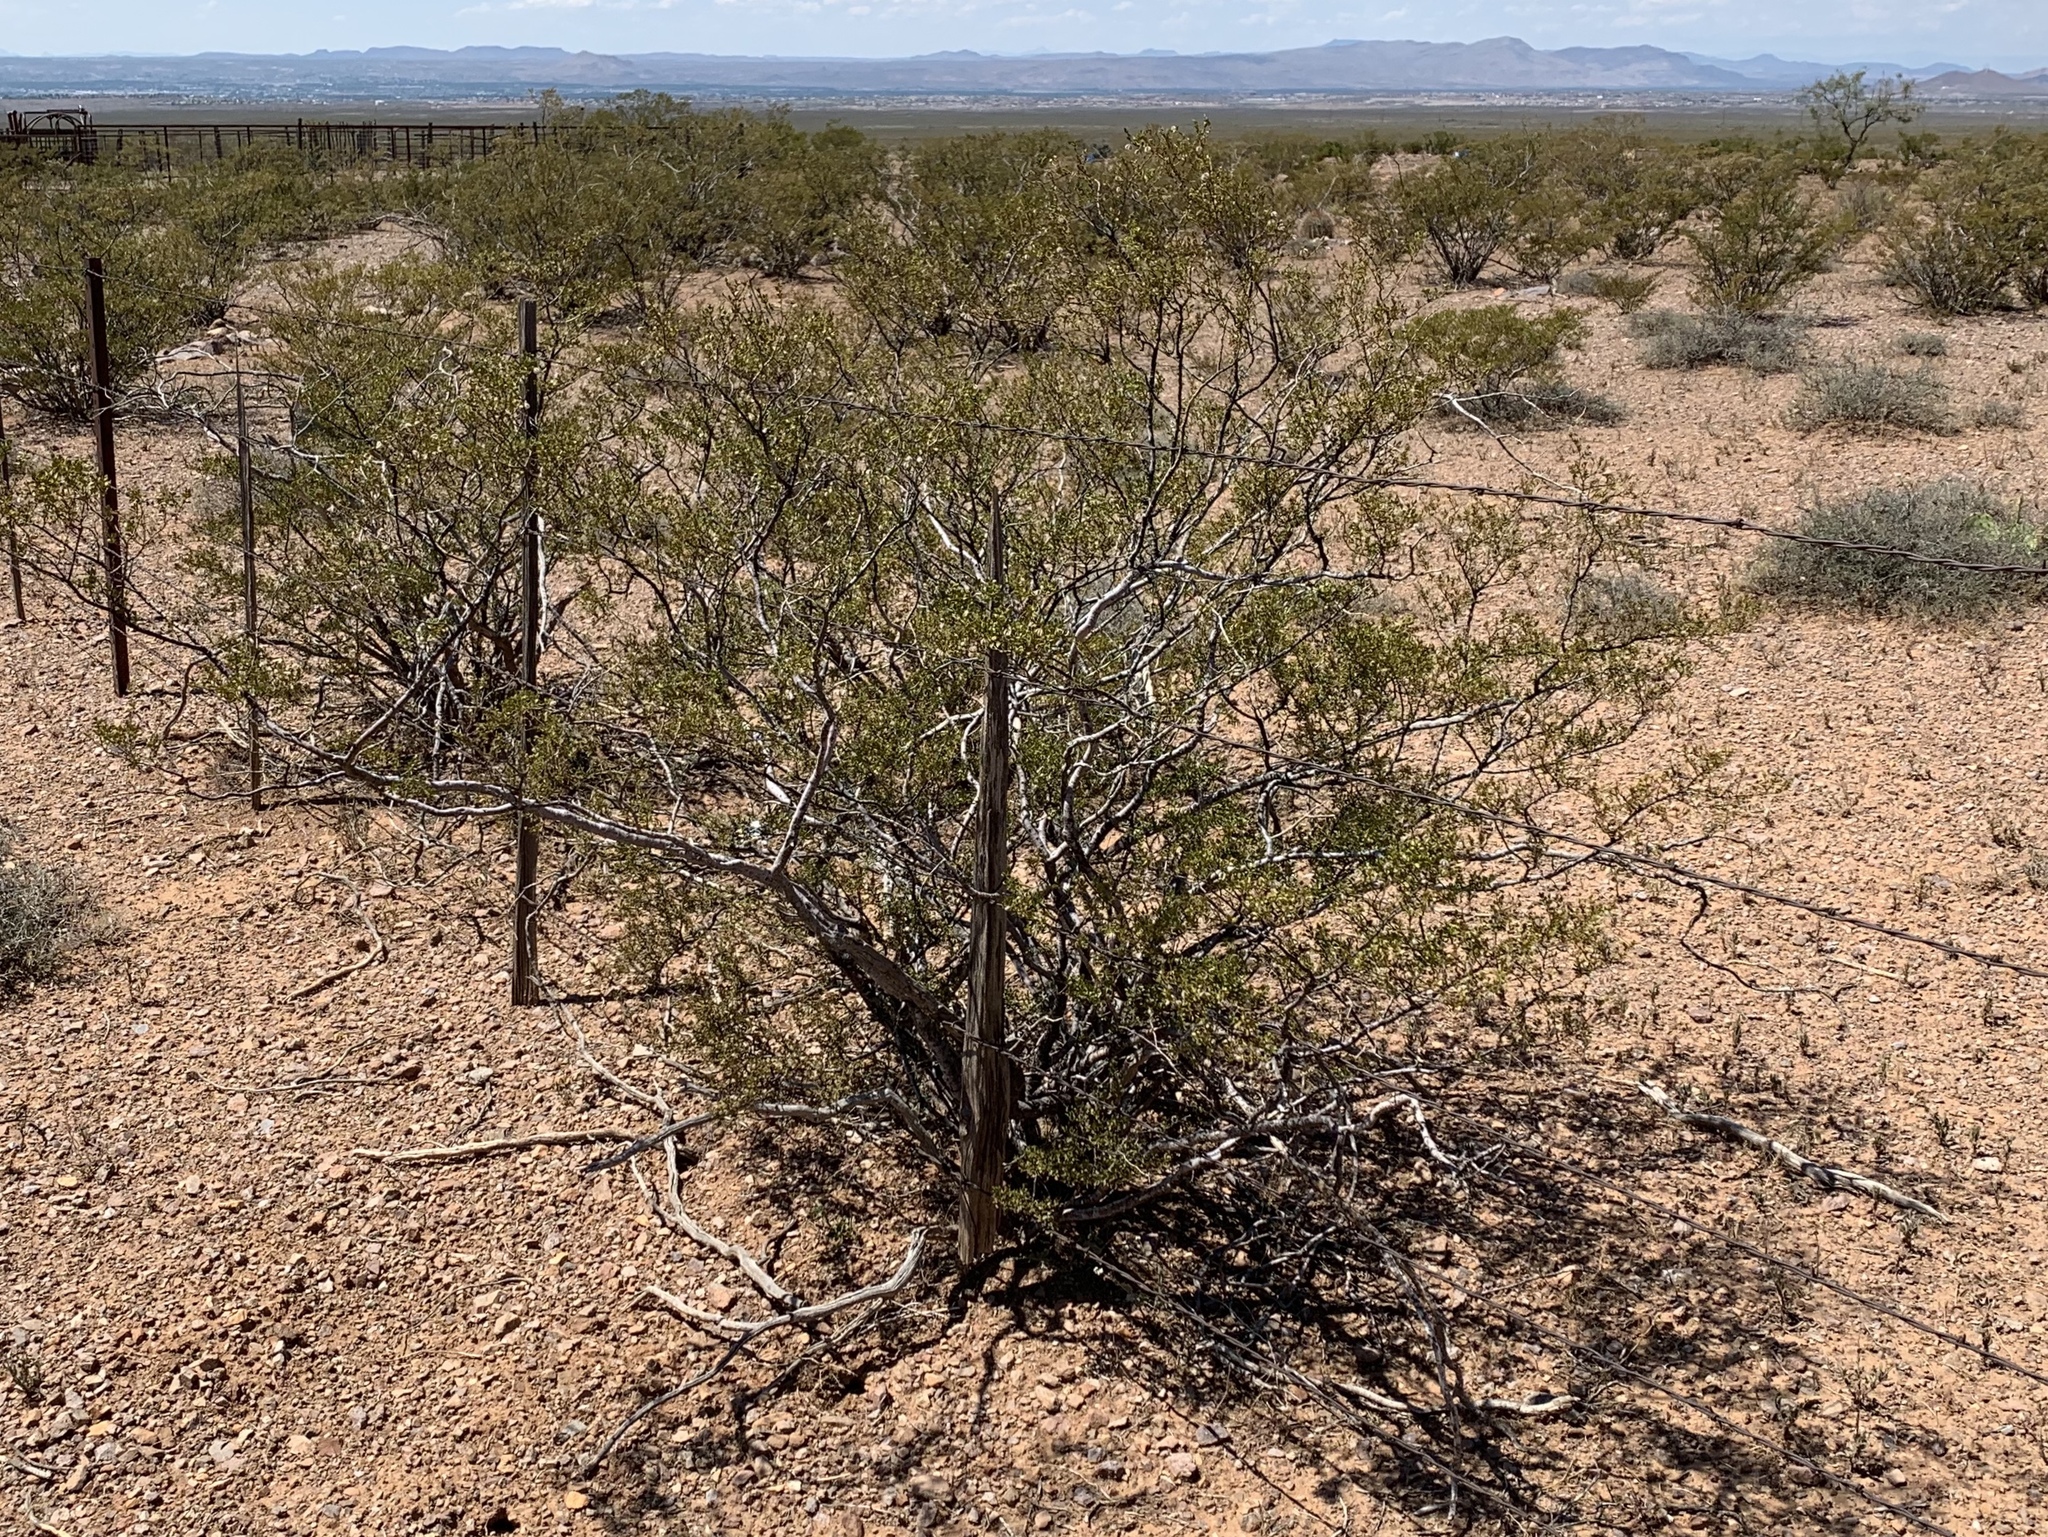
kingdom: Plantae
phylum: Tracheophyta
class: Magnoliopsida
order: Zygophyllales
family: Zygophyllaceae
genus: Larrea
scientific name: Larrea tridentata
